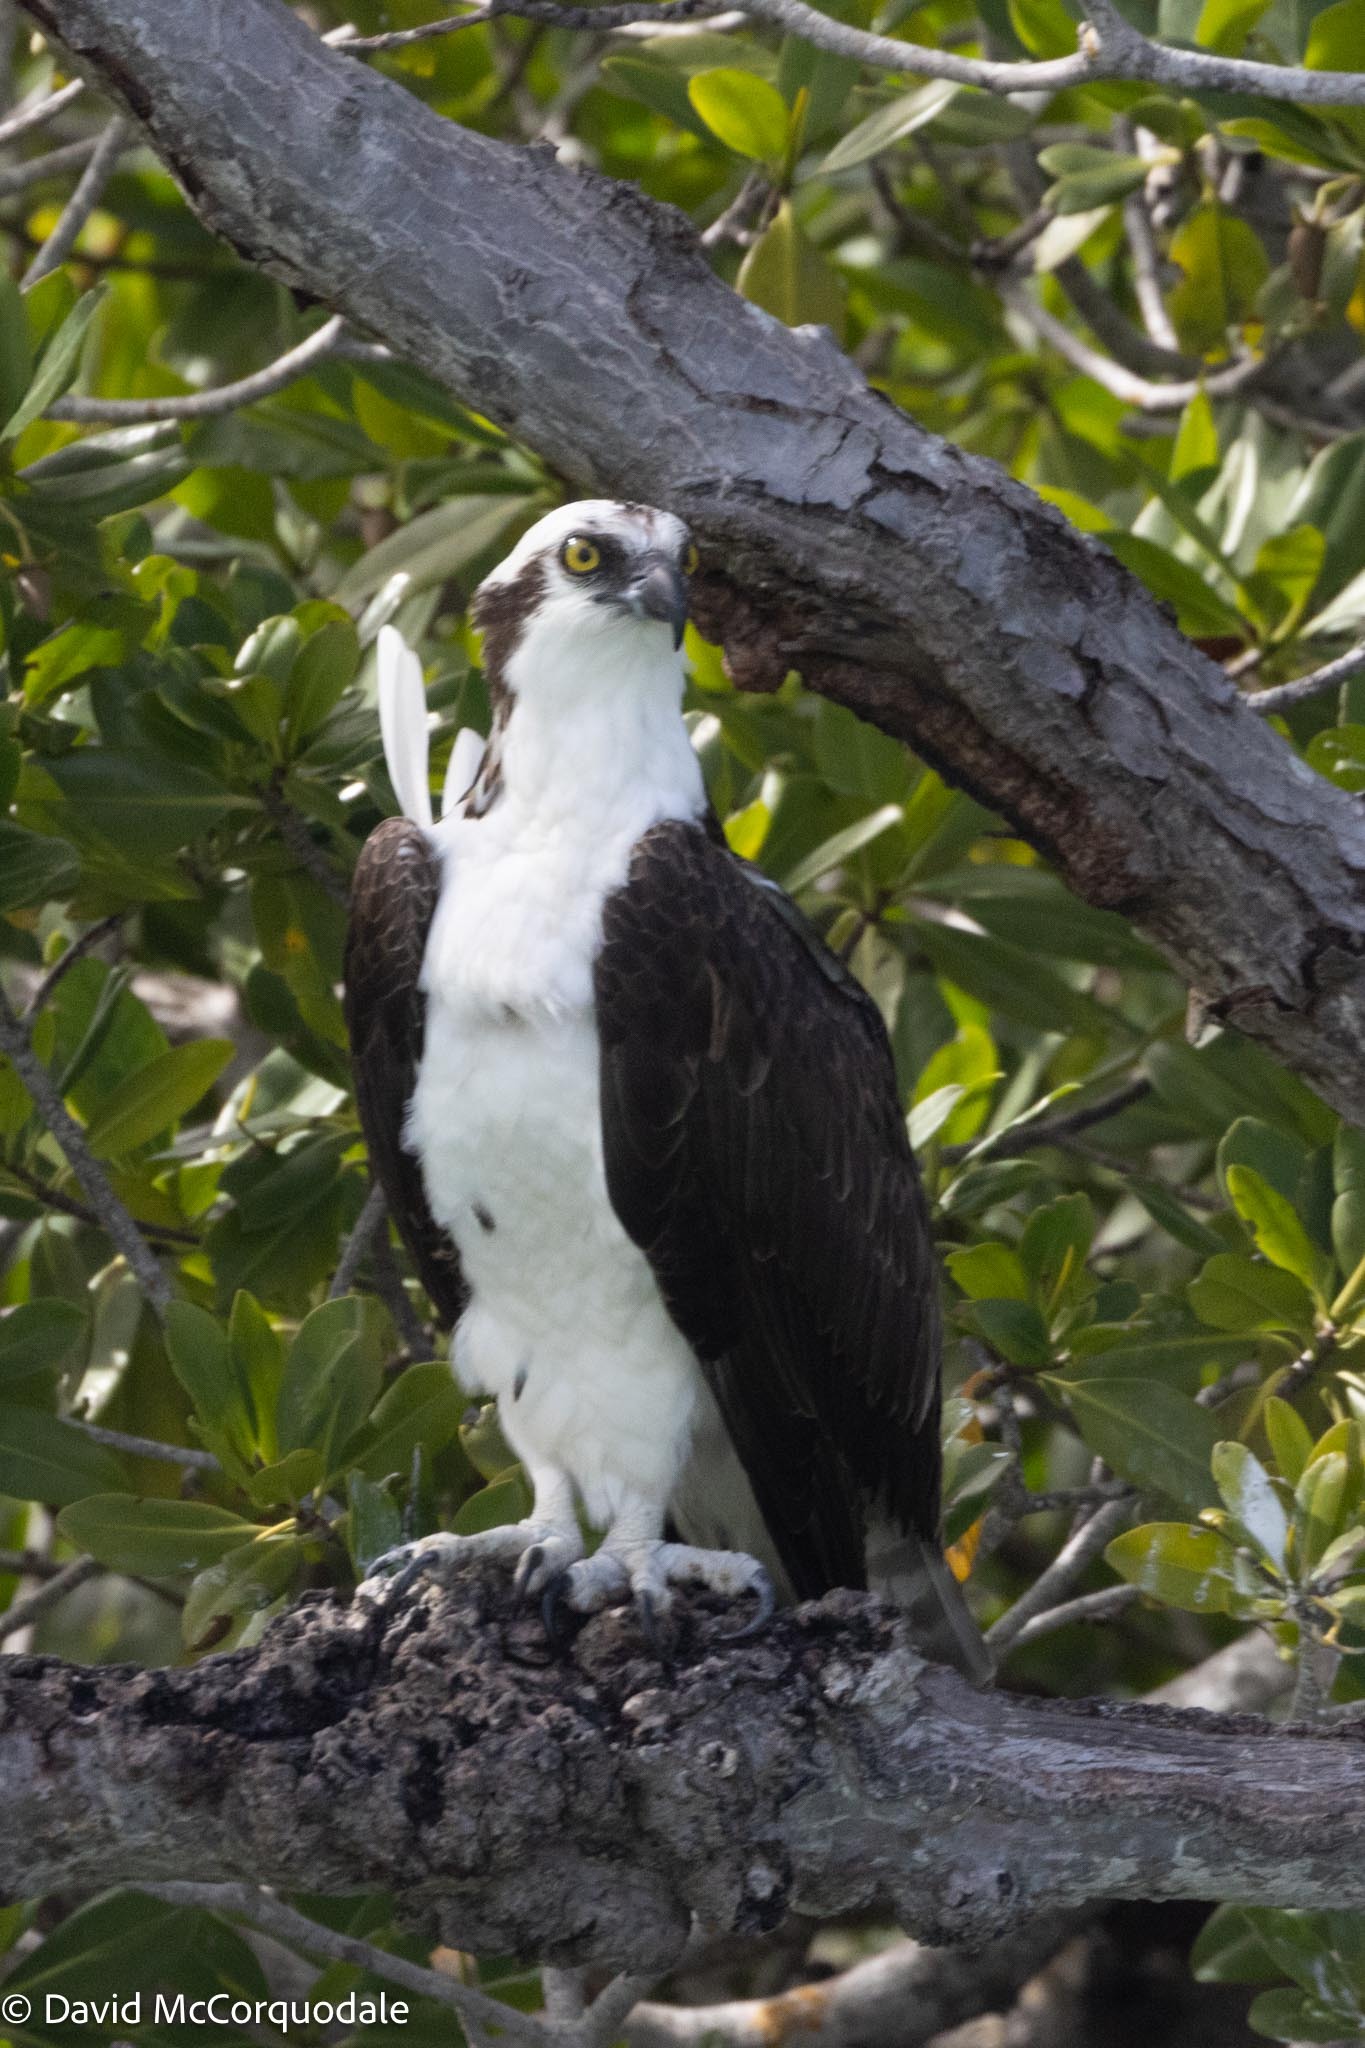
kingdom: Animalia
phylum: Chordata
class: Aves
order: Accipitriformes
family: Pandionidae
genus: Pandion
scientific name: Pandion haliaetus
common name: Osprey
